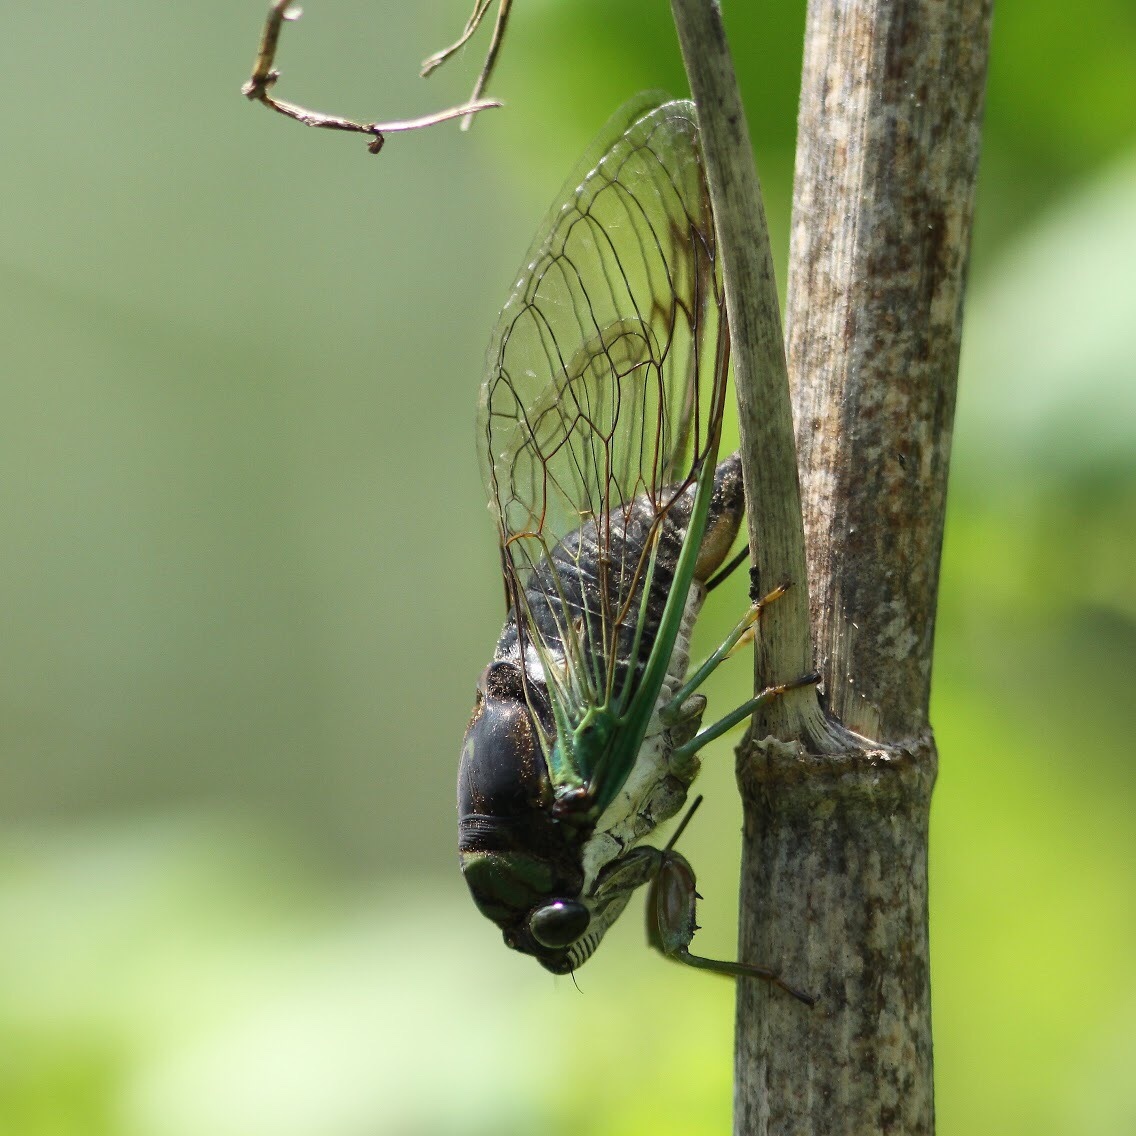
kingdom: Animalia
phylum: Arthropoda
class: Insecta
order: Hemiptera
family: Cicadidae
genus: Neotibicen
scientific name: Neotibicen tibicen
